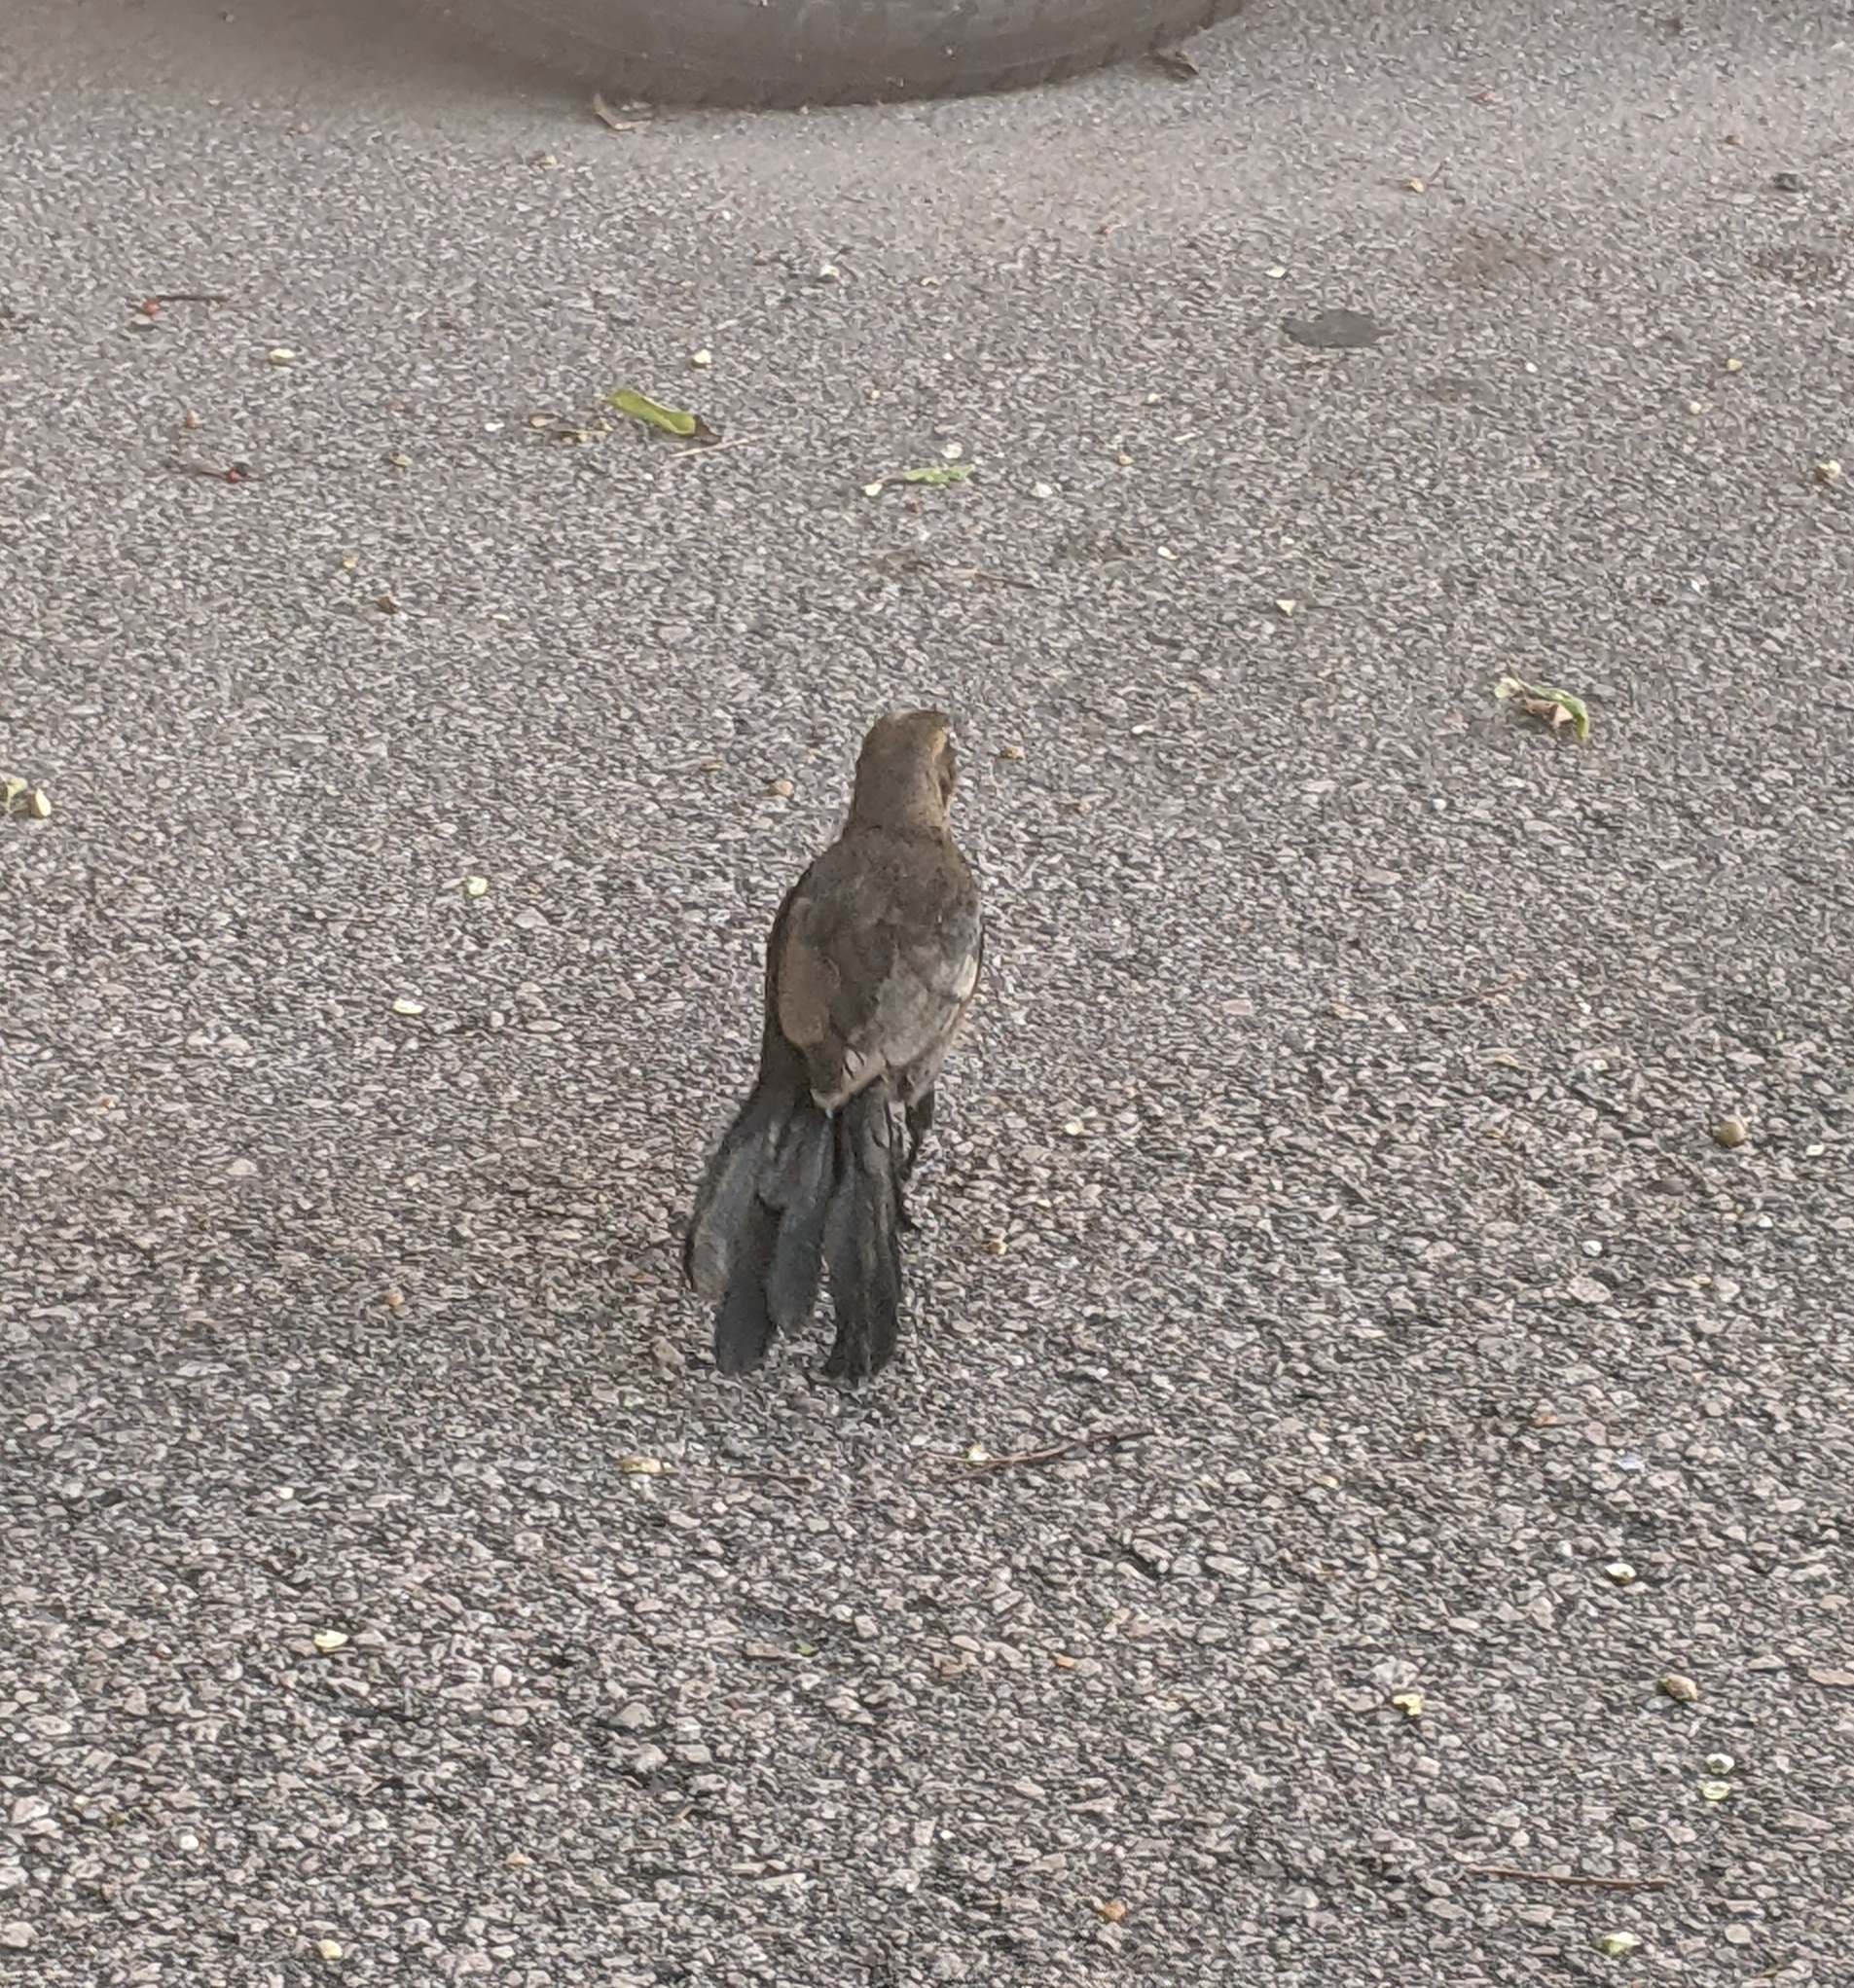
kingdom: Animalia
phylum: Chordata
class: Aves
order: Passeriformes
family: Icteridae
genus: Quiscalus
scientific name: Quiscalus mexicanus
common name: Great-tailed grackle
